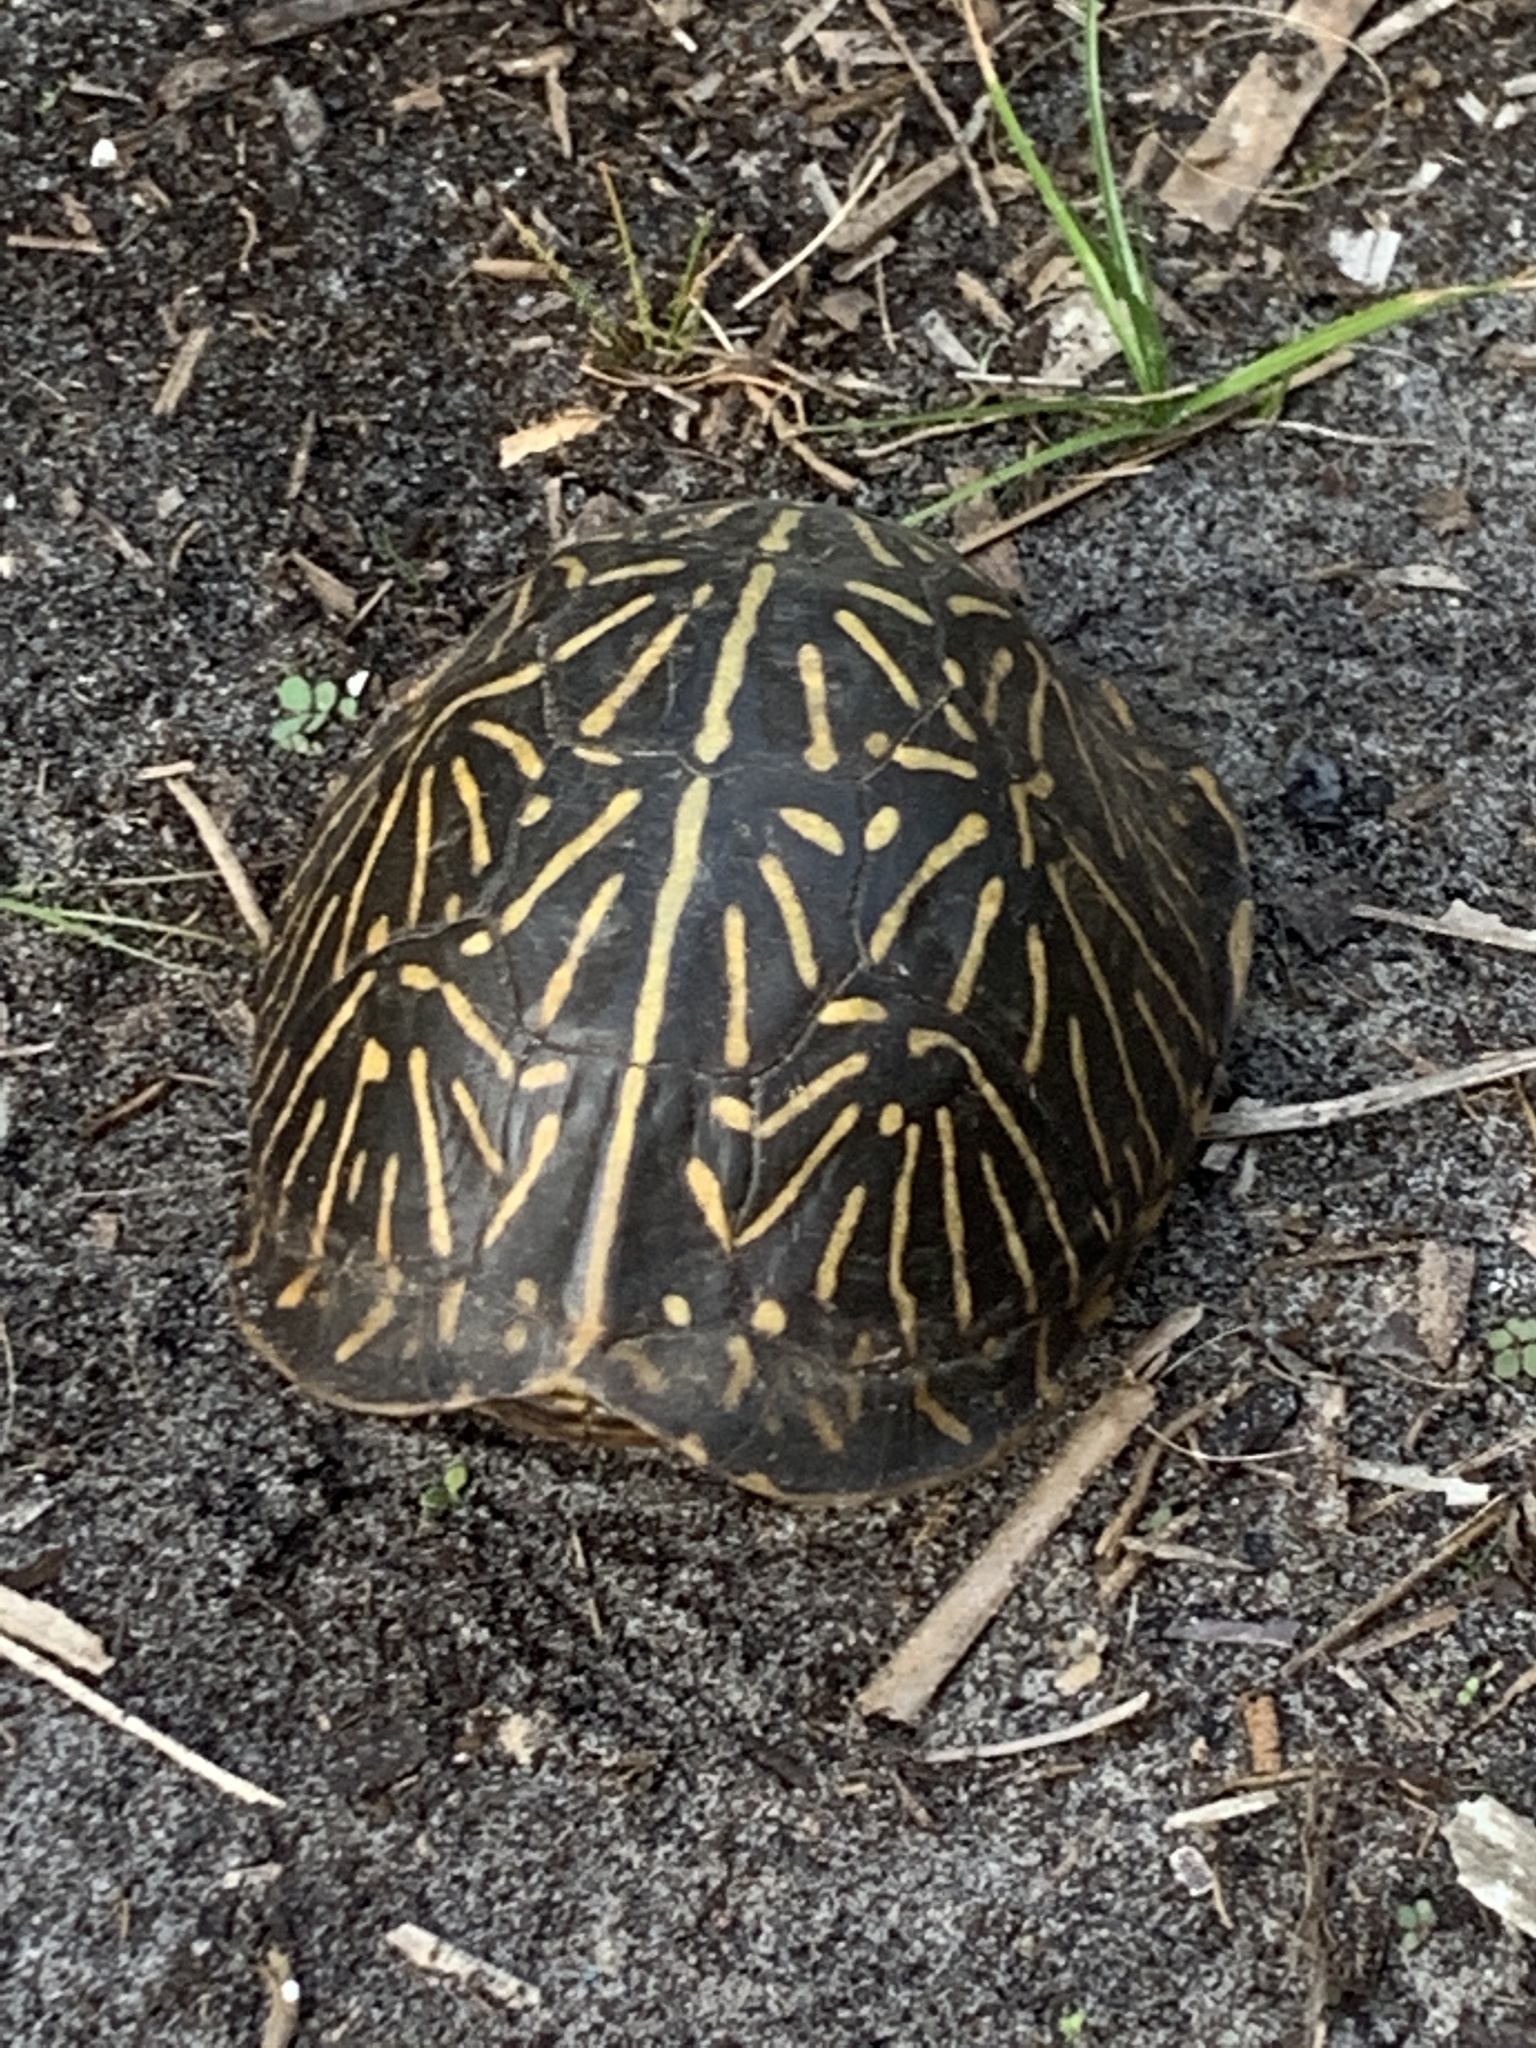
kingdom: Animalia
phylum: Chordata
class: Testudines
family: Emydidae
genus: Terrapene
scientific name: Terrapene carolina
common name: Common box turtle
